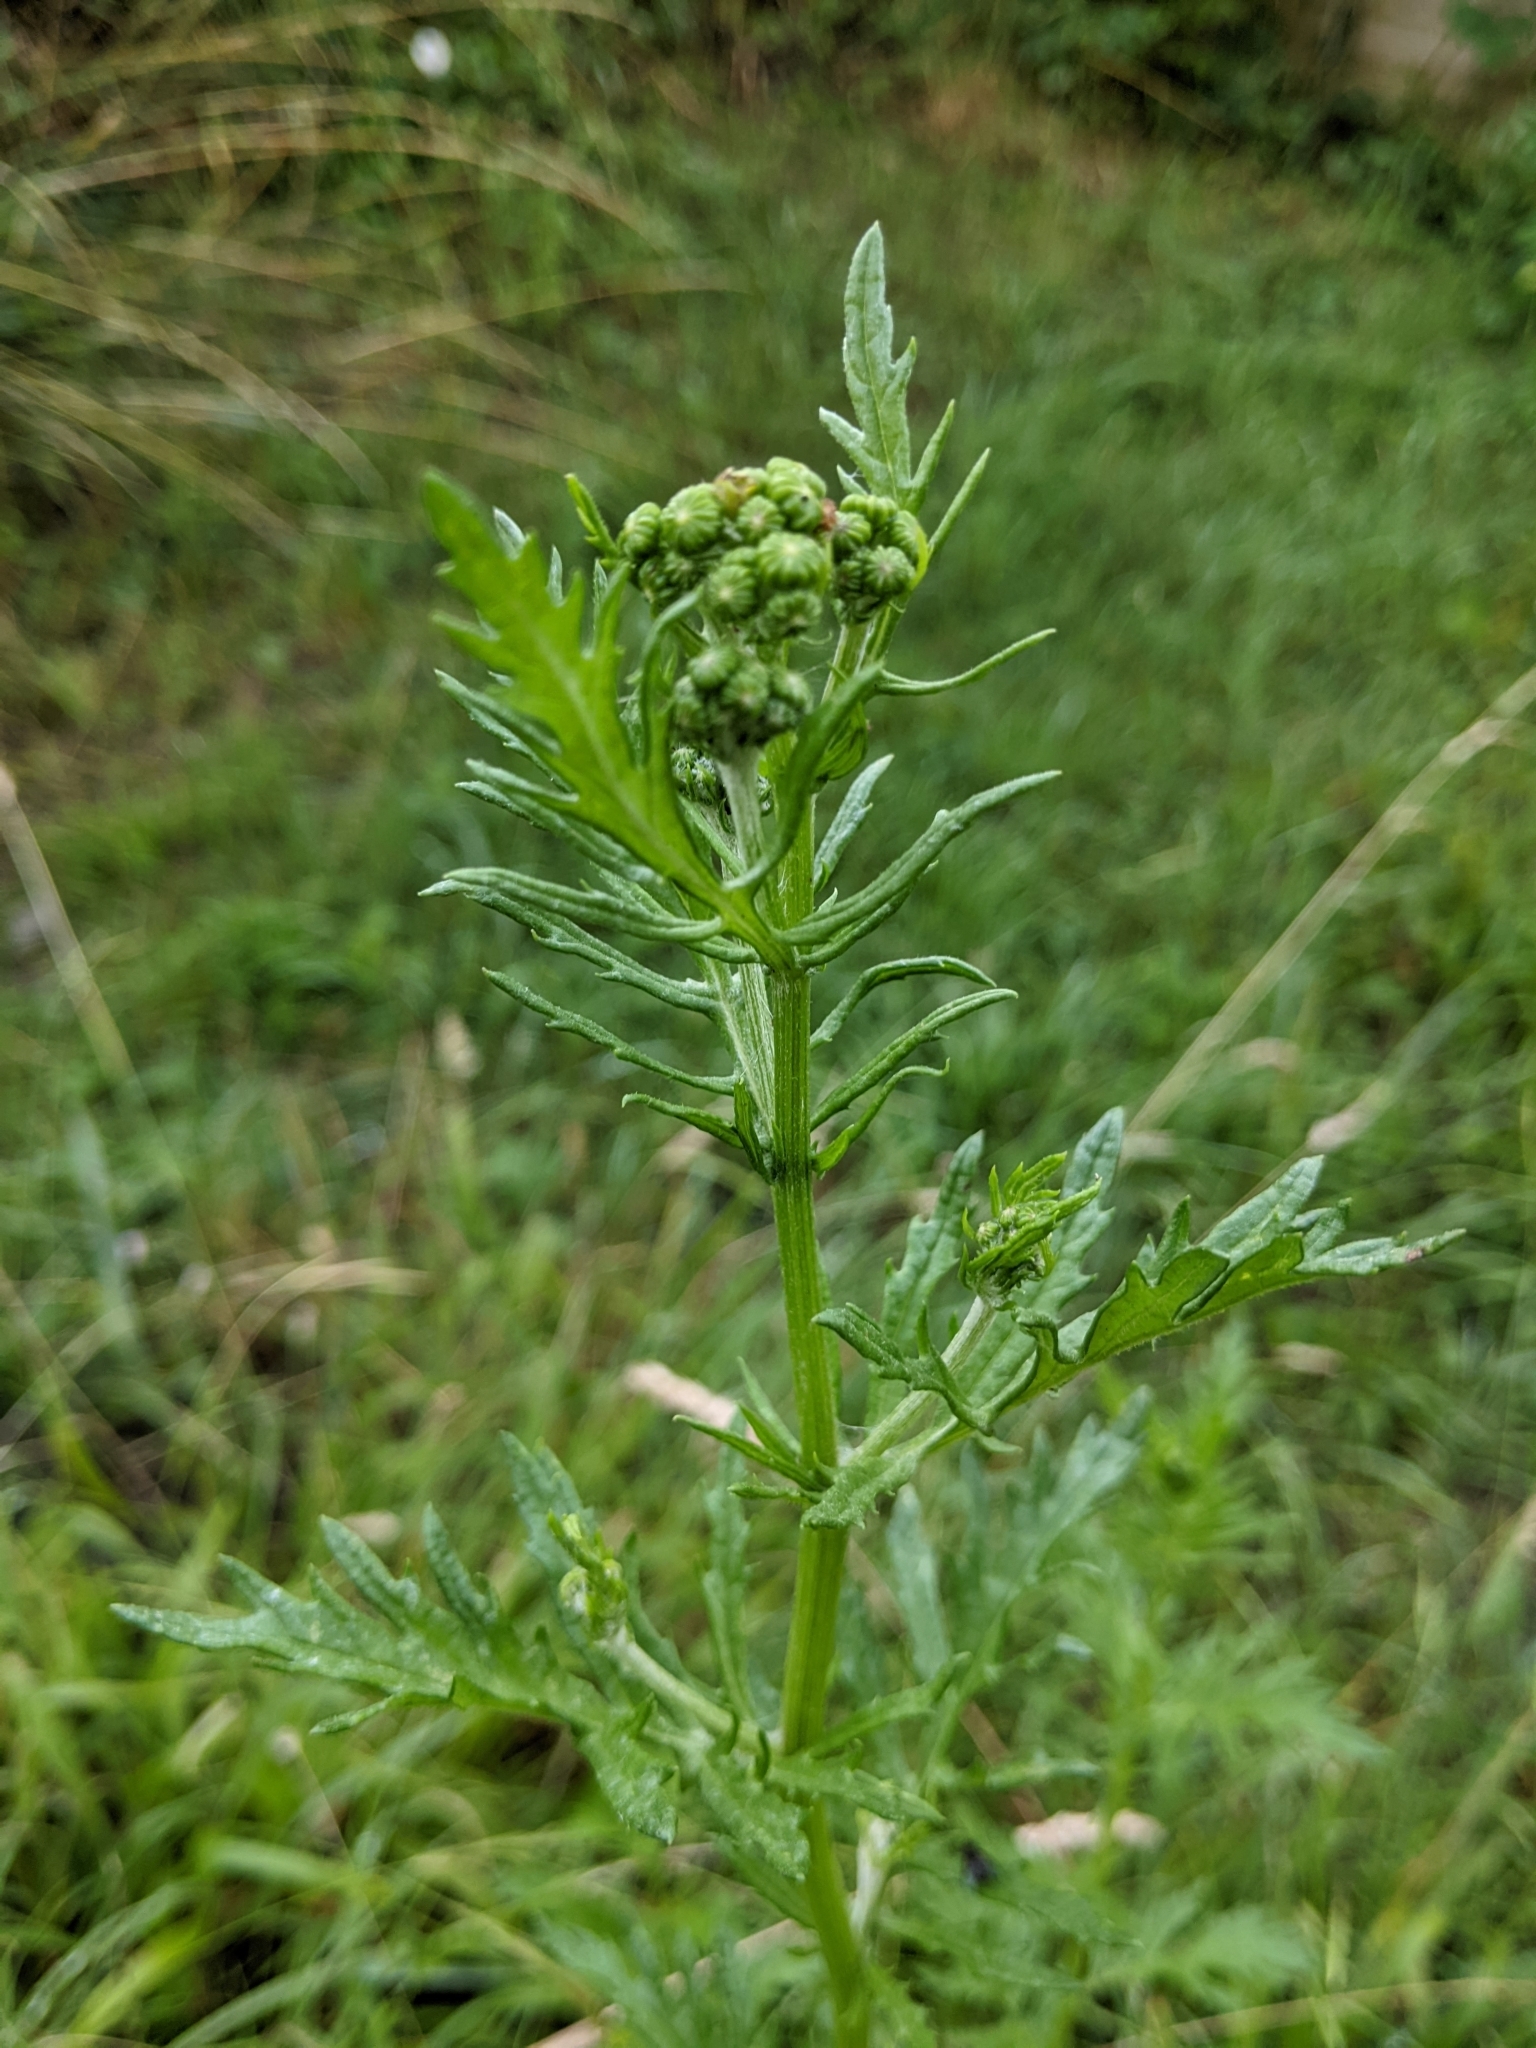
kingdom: Plantae
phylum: Tracheophyta
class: Magnoliopsida
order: Asterales
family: Asteraceae
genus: Jacobaea
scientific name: Jacobaea erucifolia
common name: Hoary ragwort
